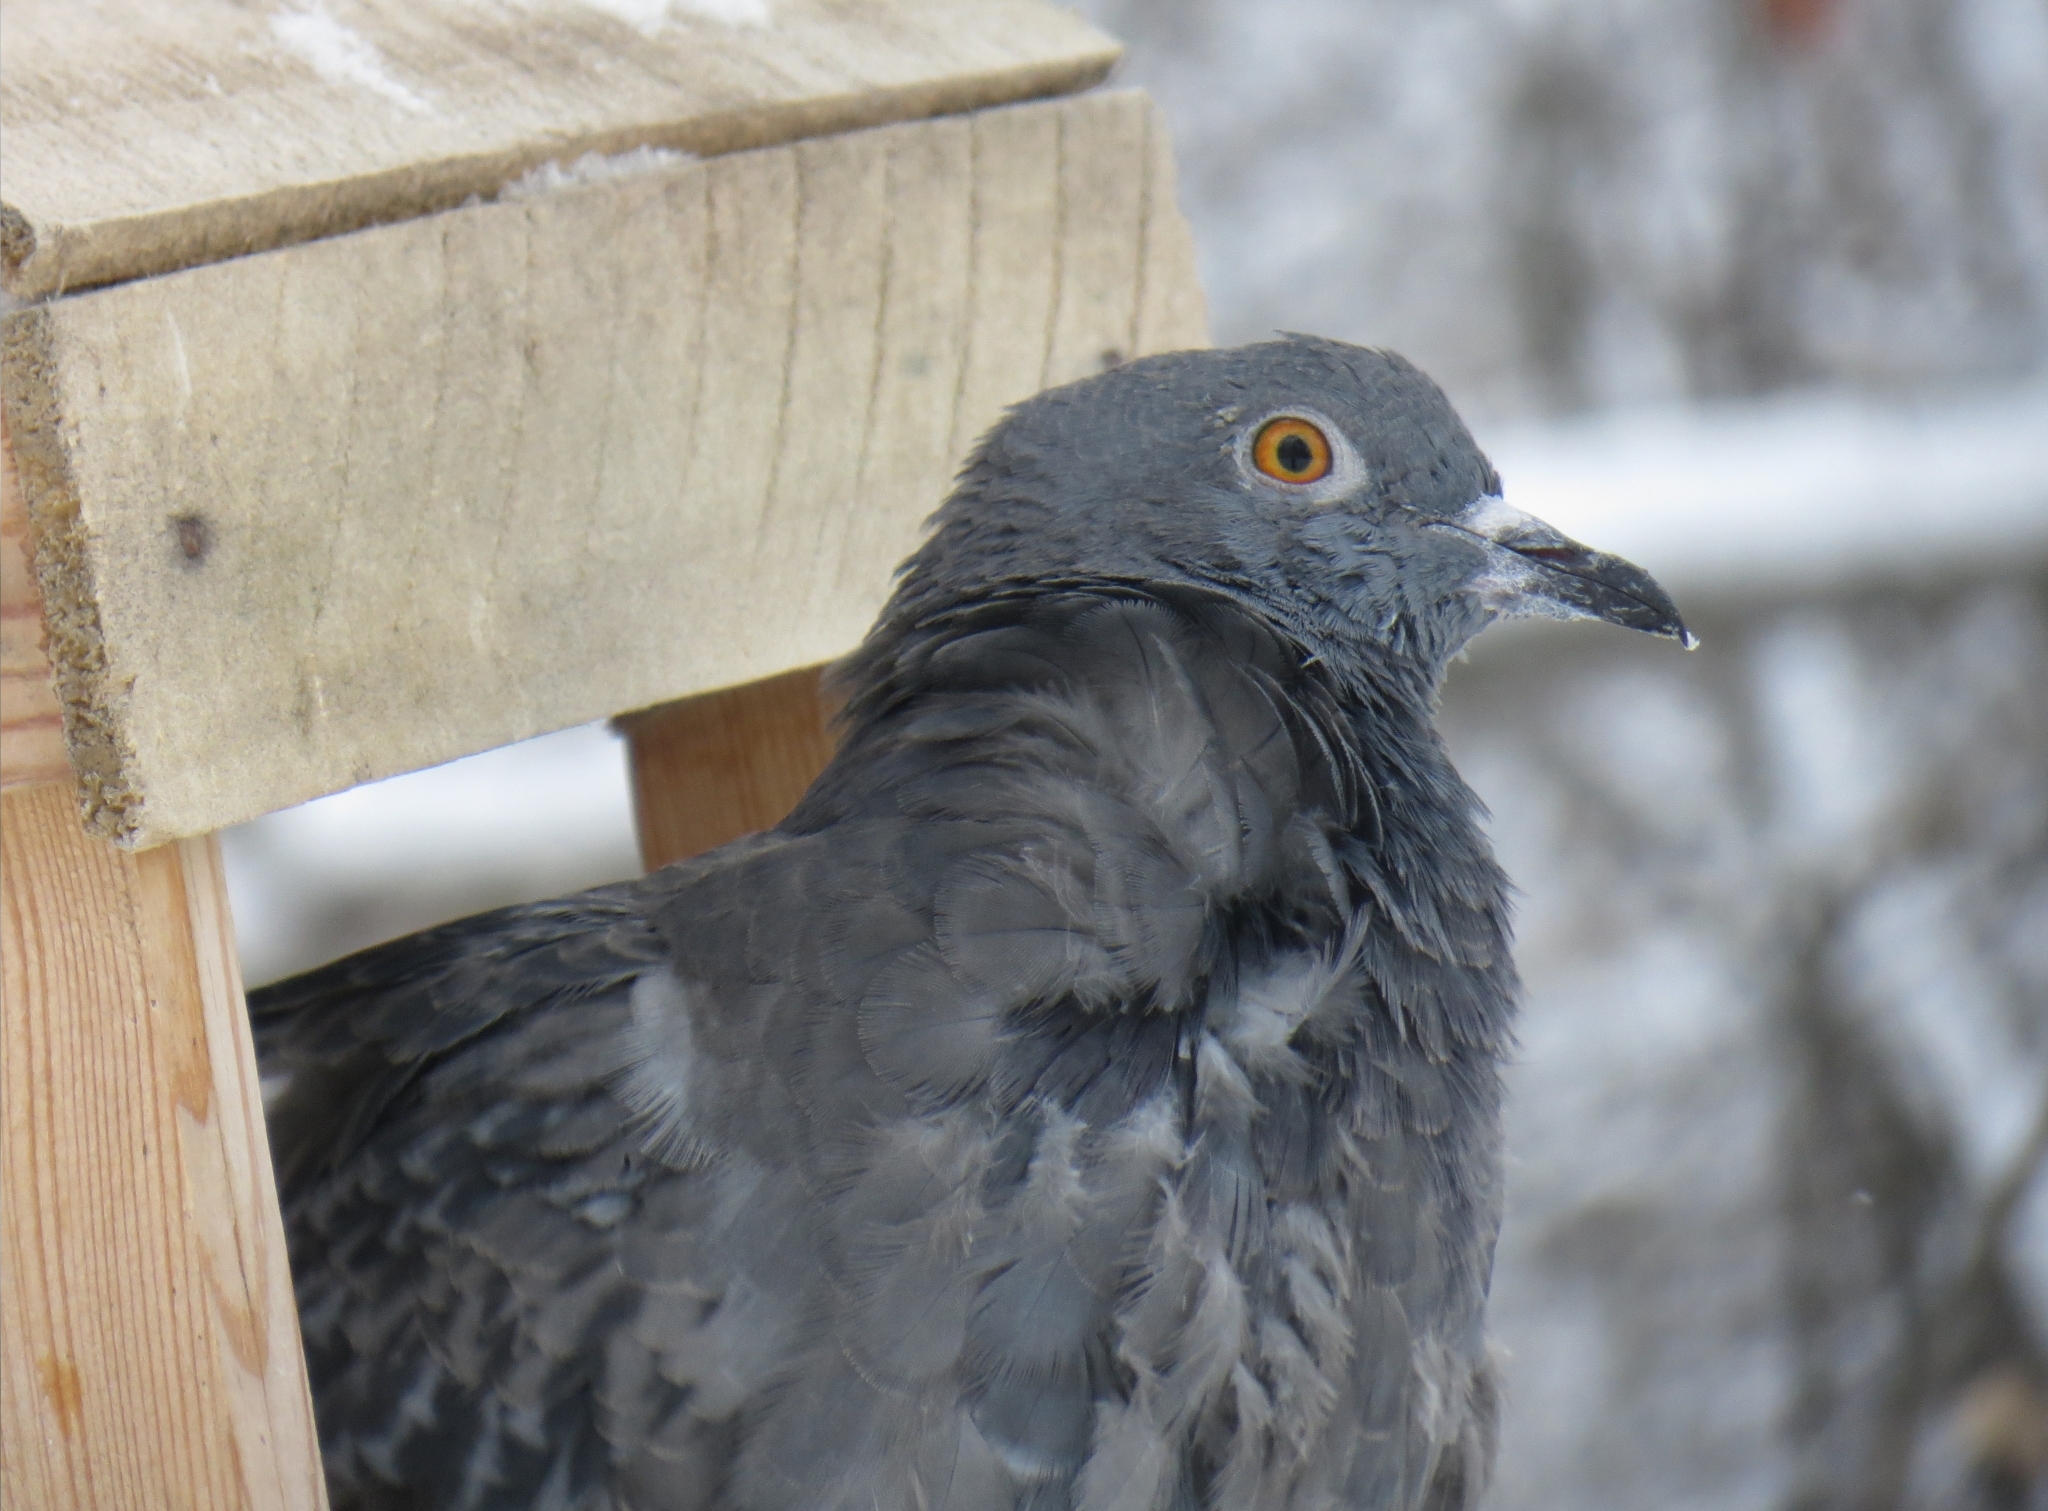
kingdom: Animalia
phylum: Chordata
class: Aves
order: Columbiformes
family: Columbidae
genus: Columba
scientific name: Columba livia
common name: Rock pigeon
